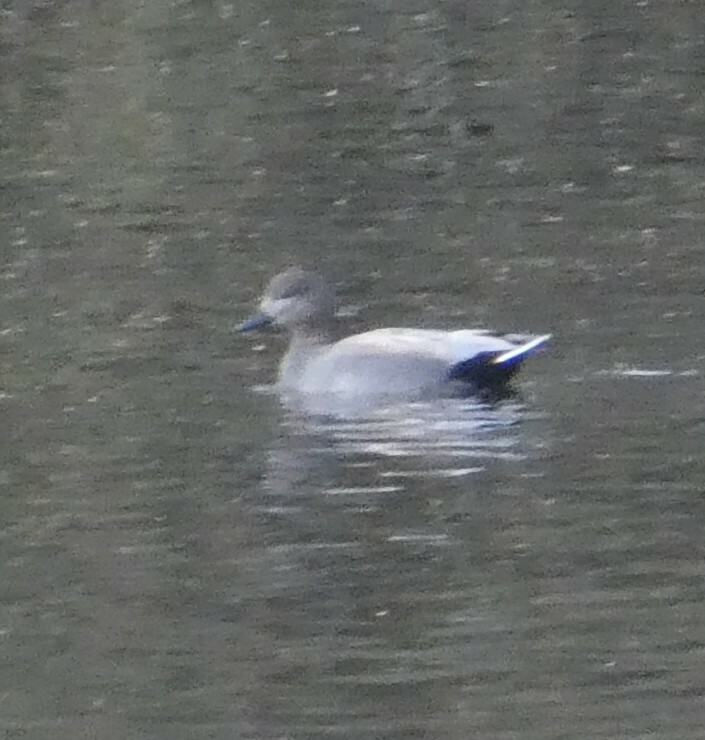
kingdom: Animalia
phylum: Chordata
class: Aves
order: Anseriformes
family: Anatidae
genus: Mareca
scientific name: Mareca strepera
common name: Gadwall
